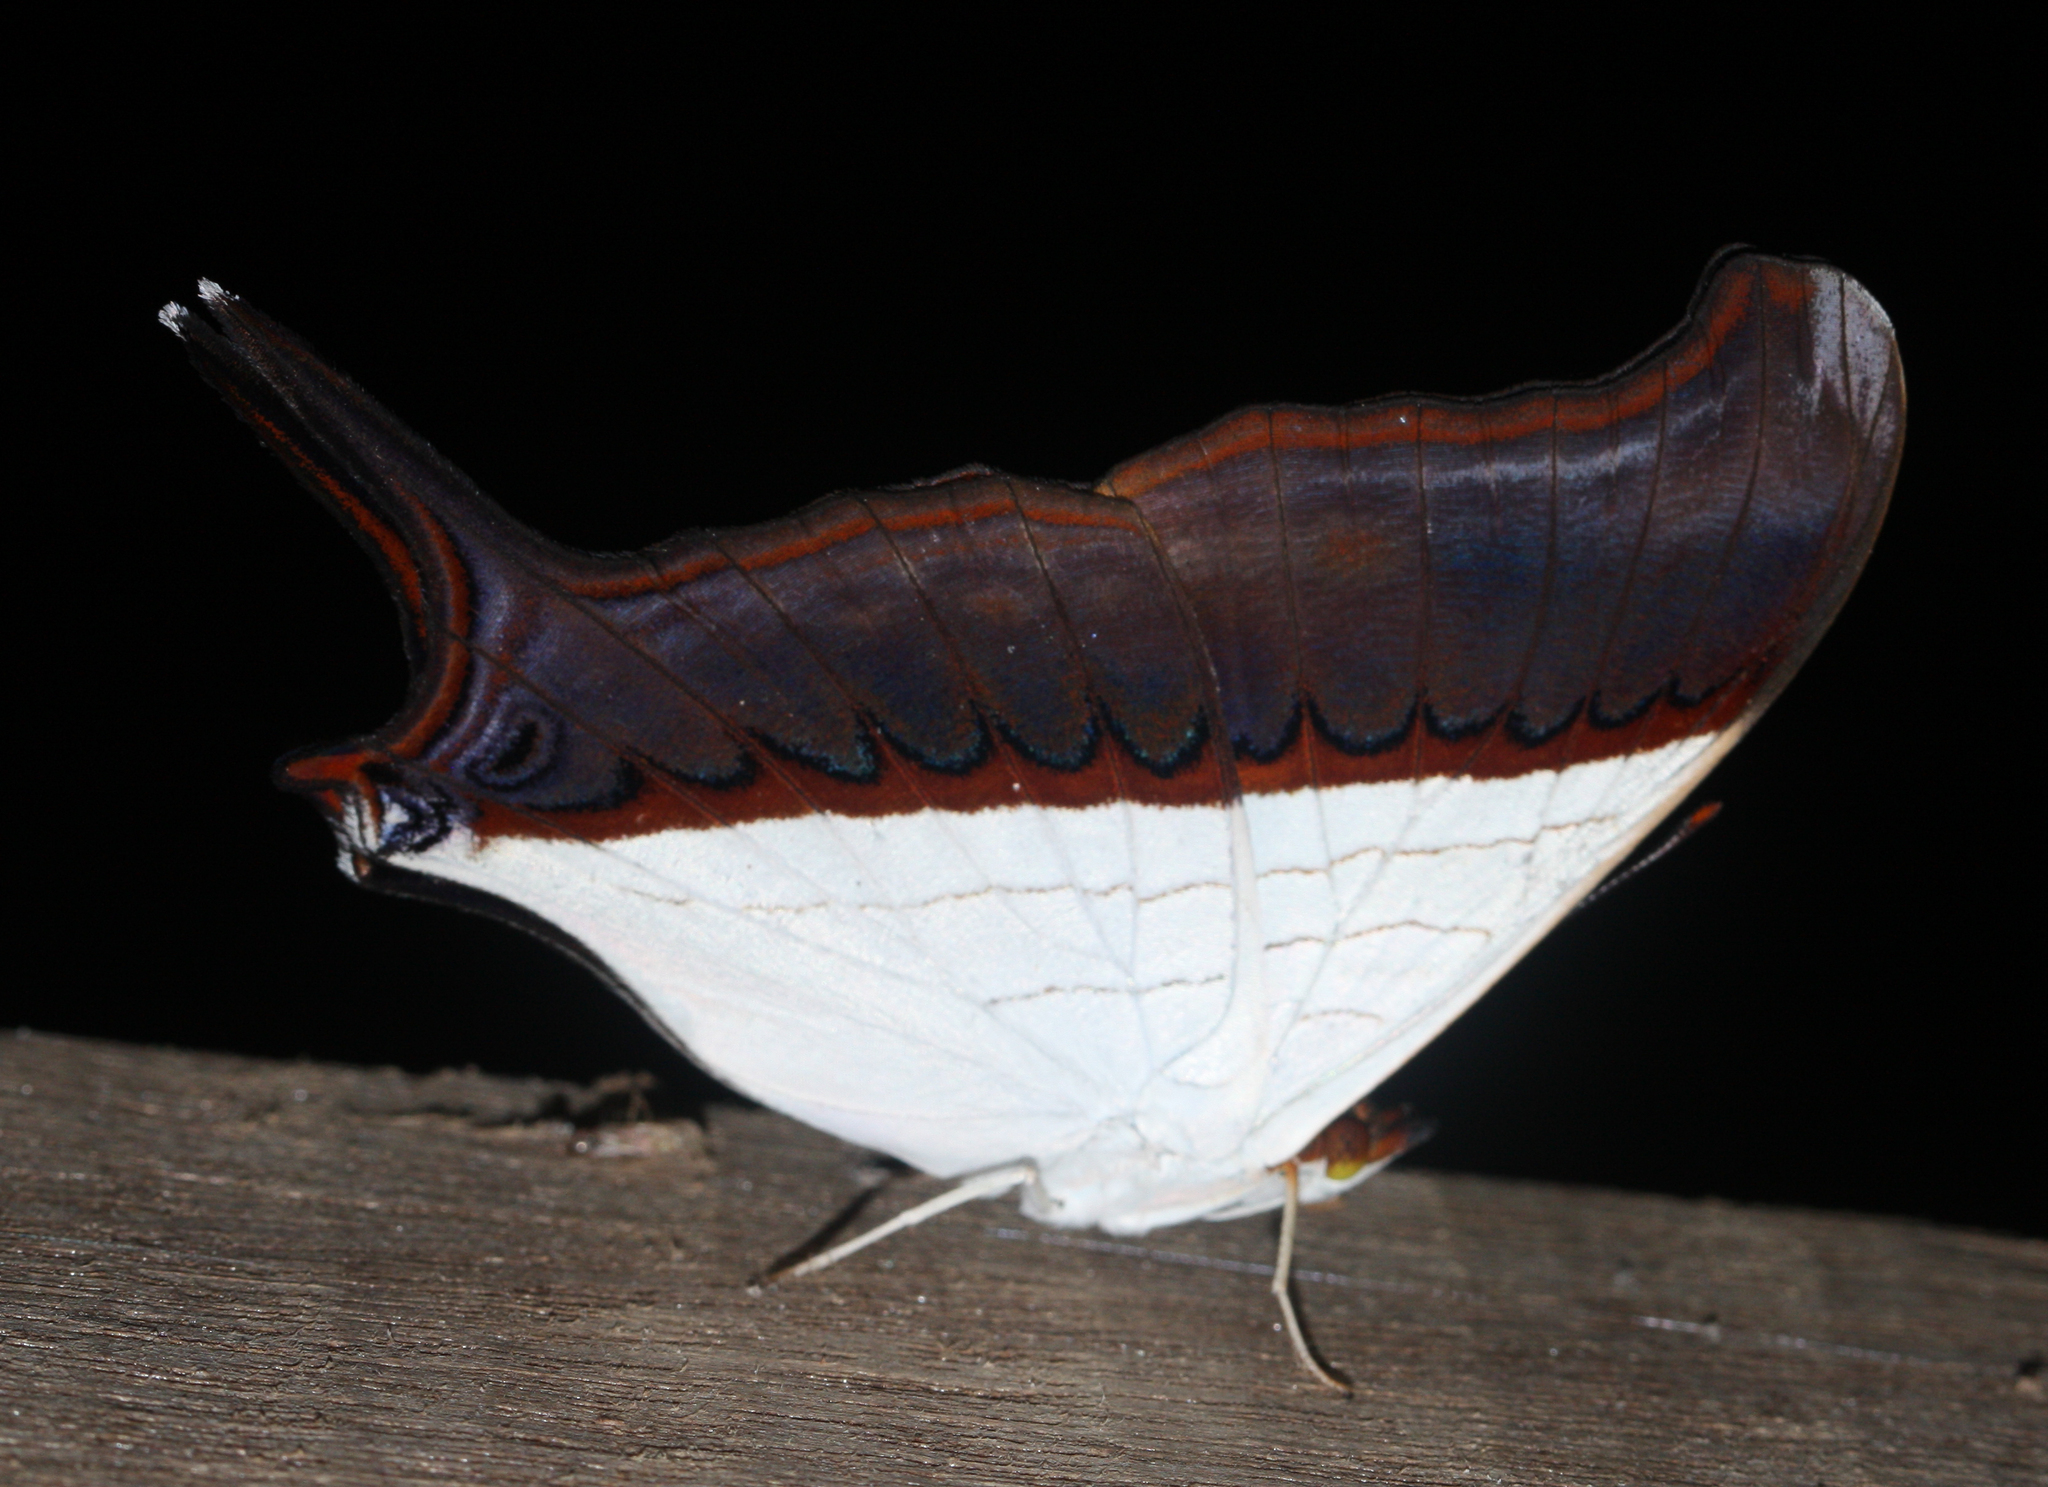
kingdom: Animalia
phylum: Arthropoda
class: Insecta
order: Lepidoptera
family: Nymphalidae
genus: Marpesia
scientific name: Marpesia zerynthia
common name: Waiter daggerwing
